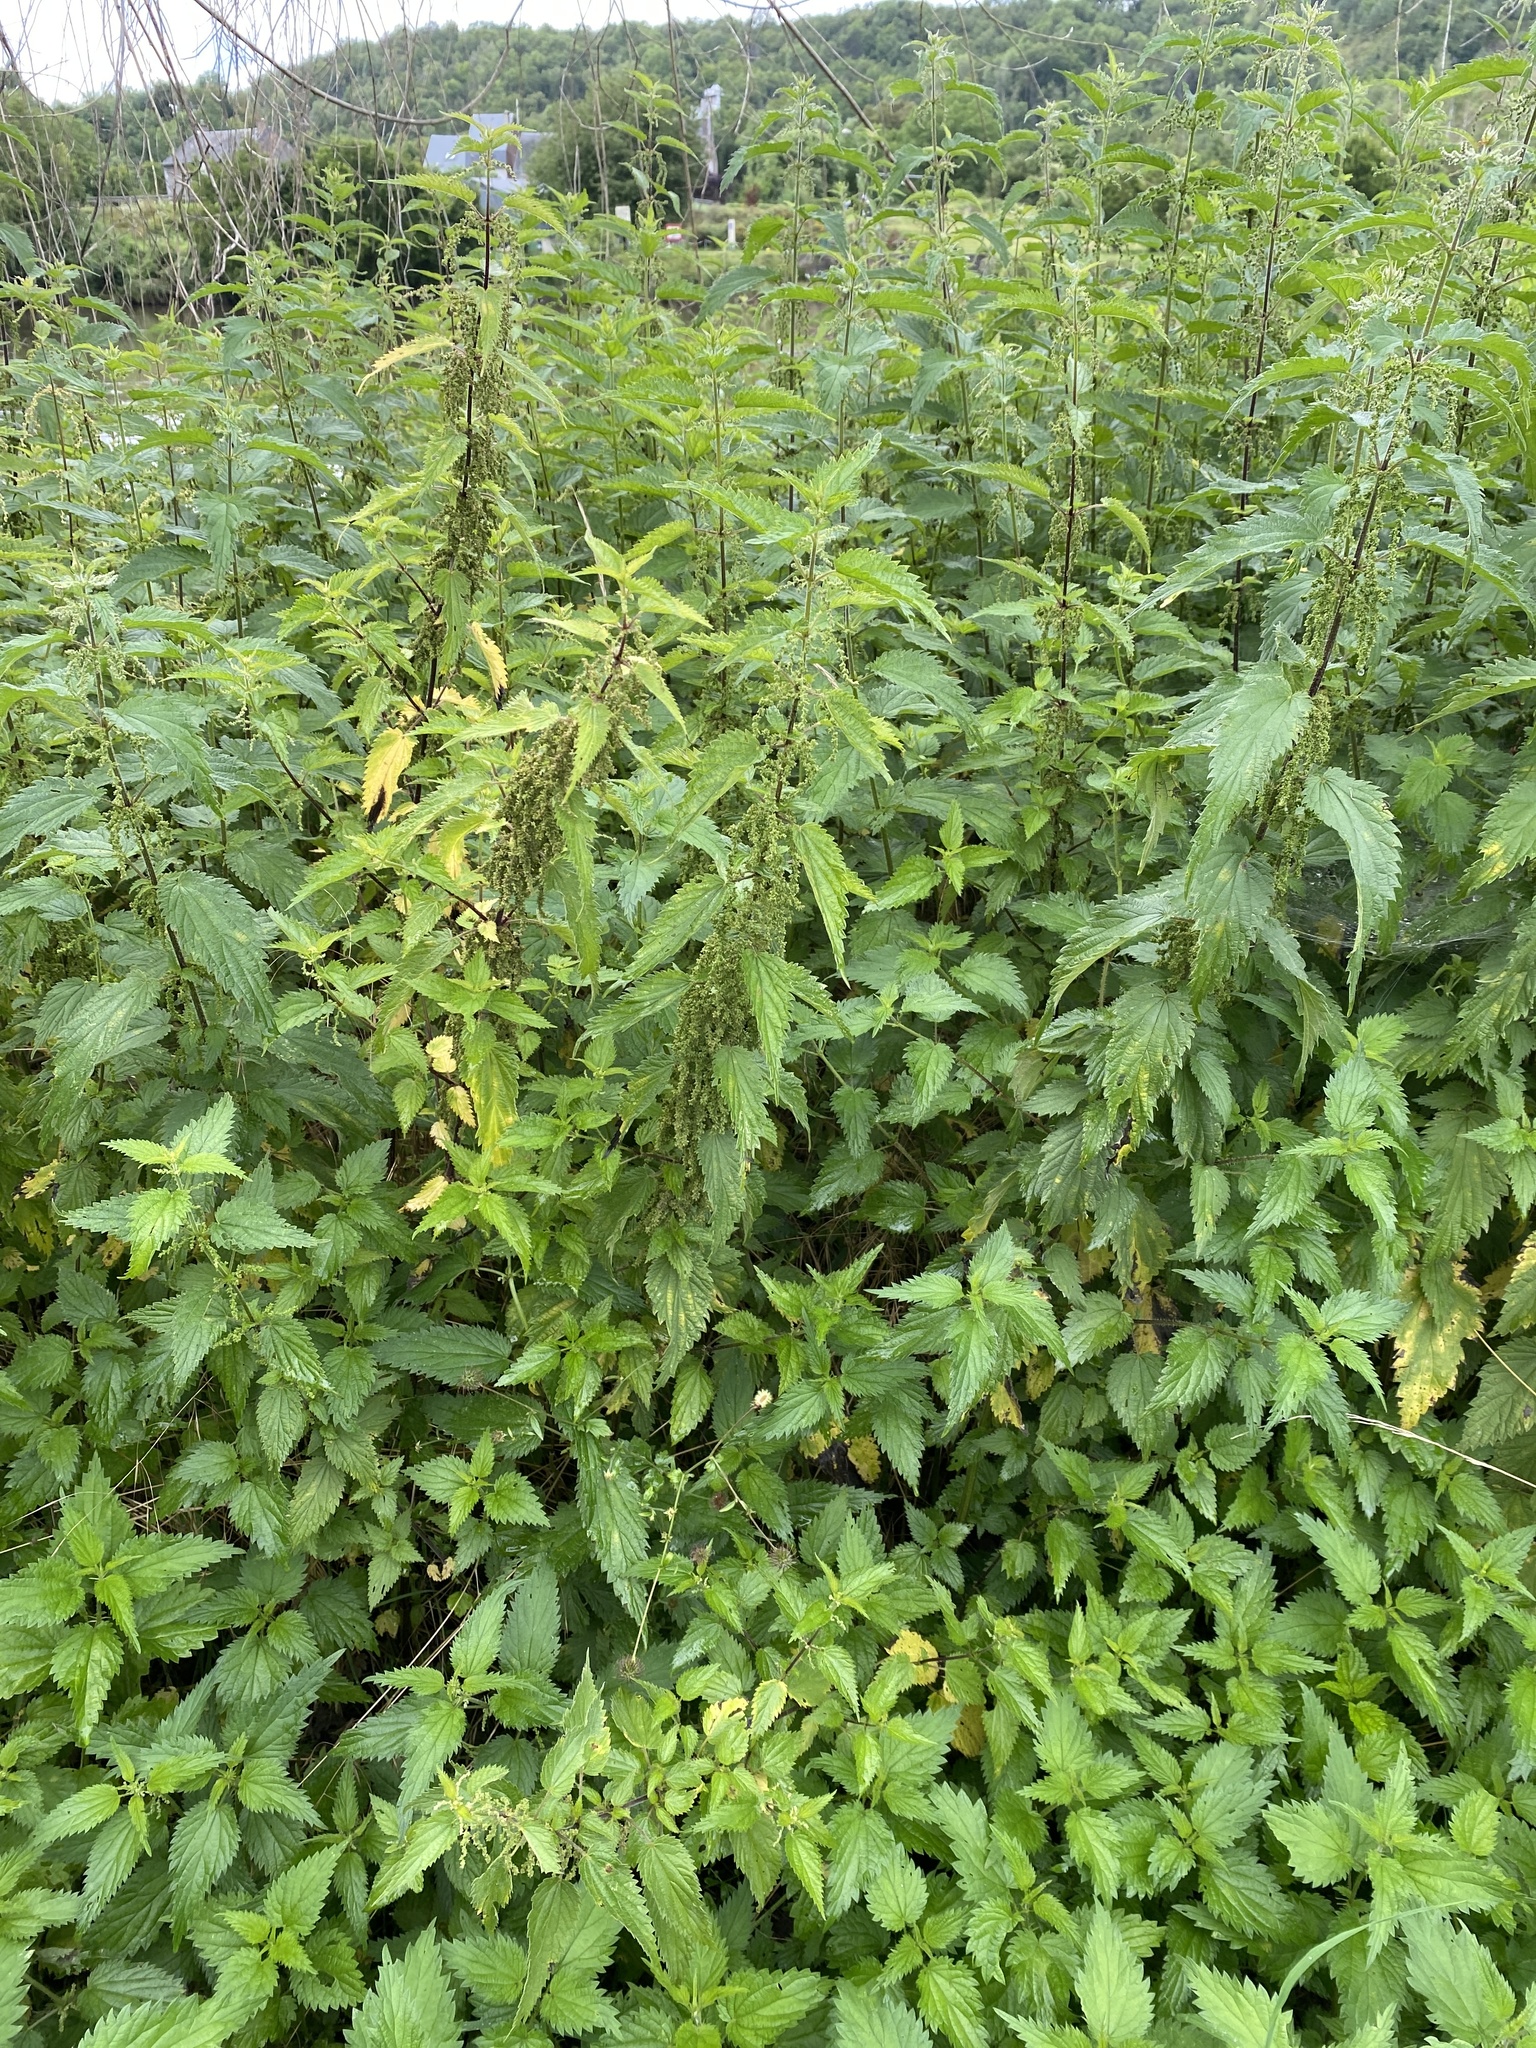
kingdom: Plantae
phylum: Tracheophyta
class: Magnoliopsida
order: Rosales
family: Urticaceae
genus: Urtica
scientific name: Urtica dioica
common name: Common nettle
